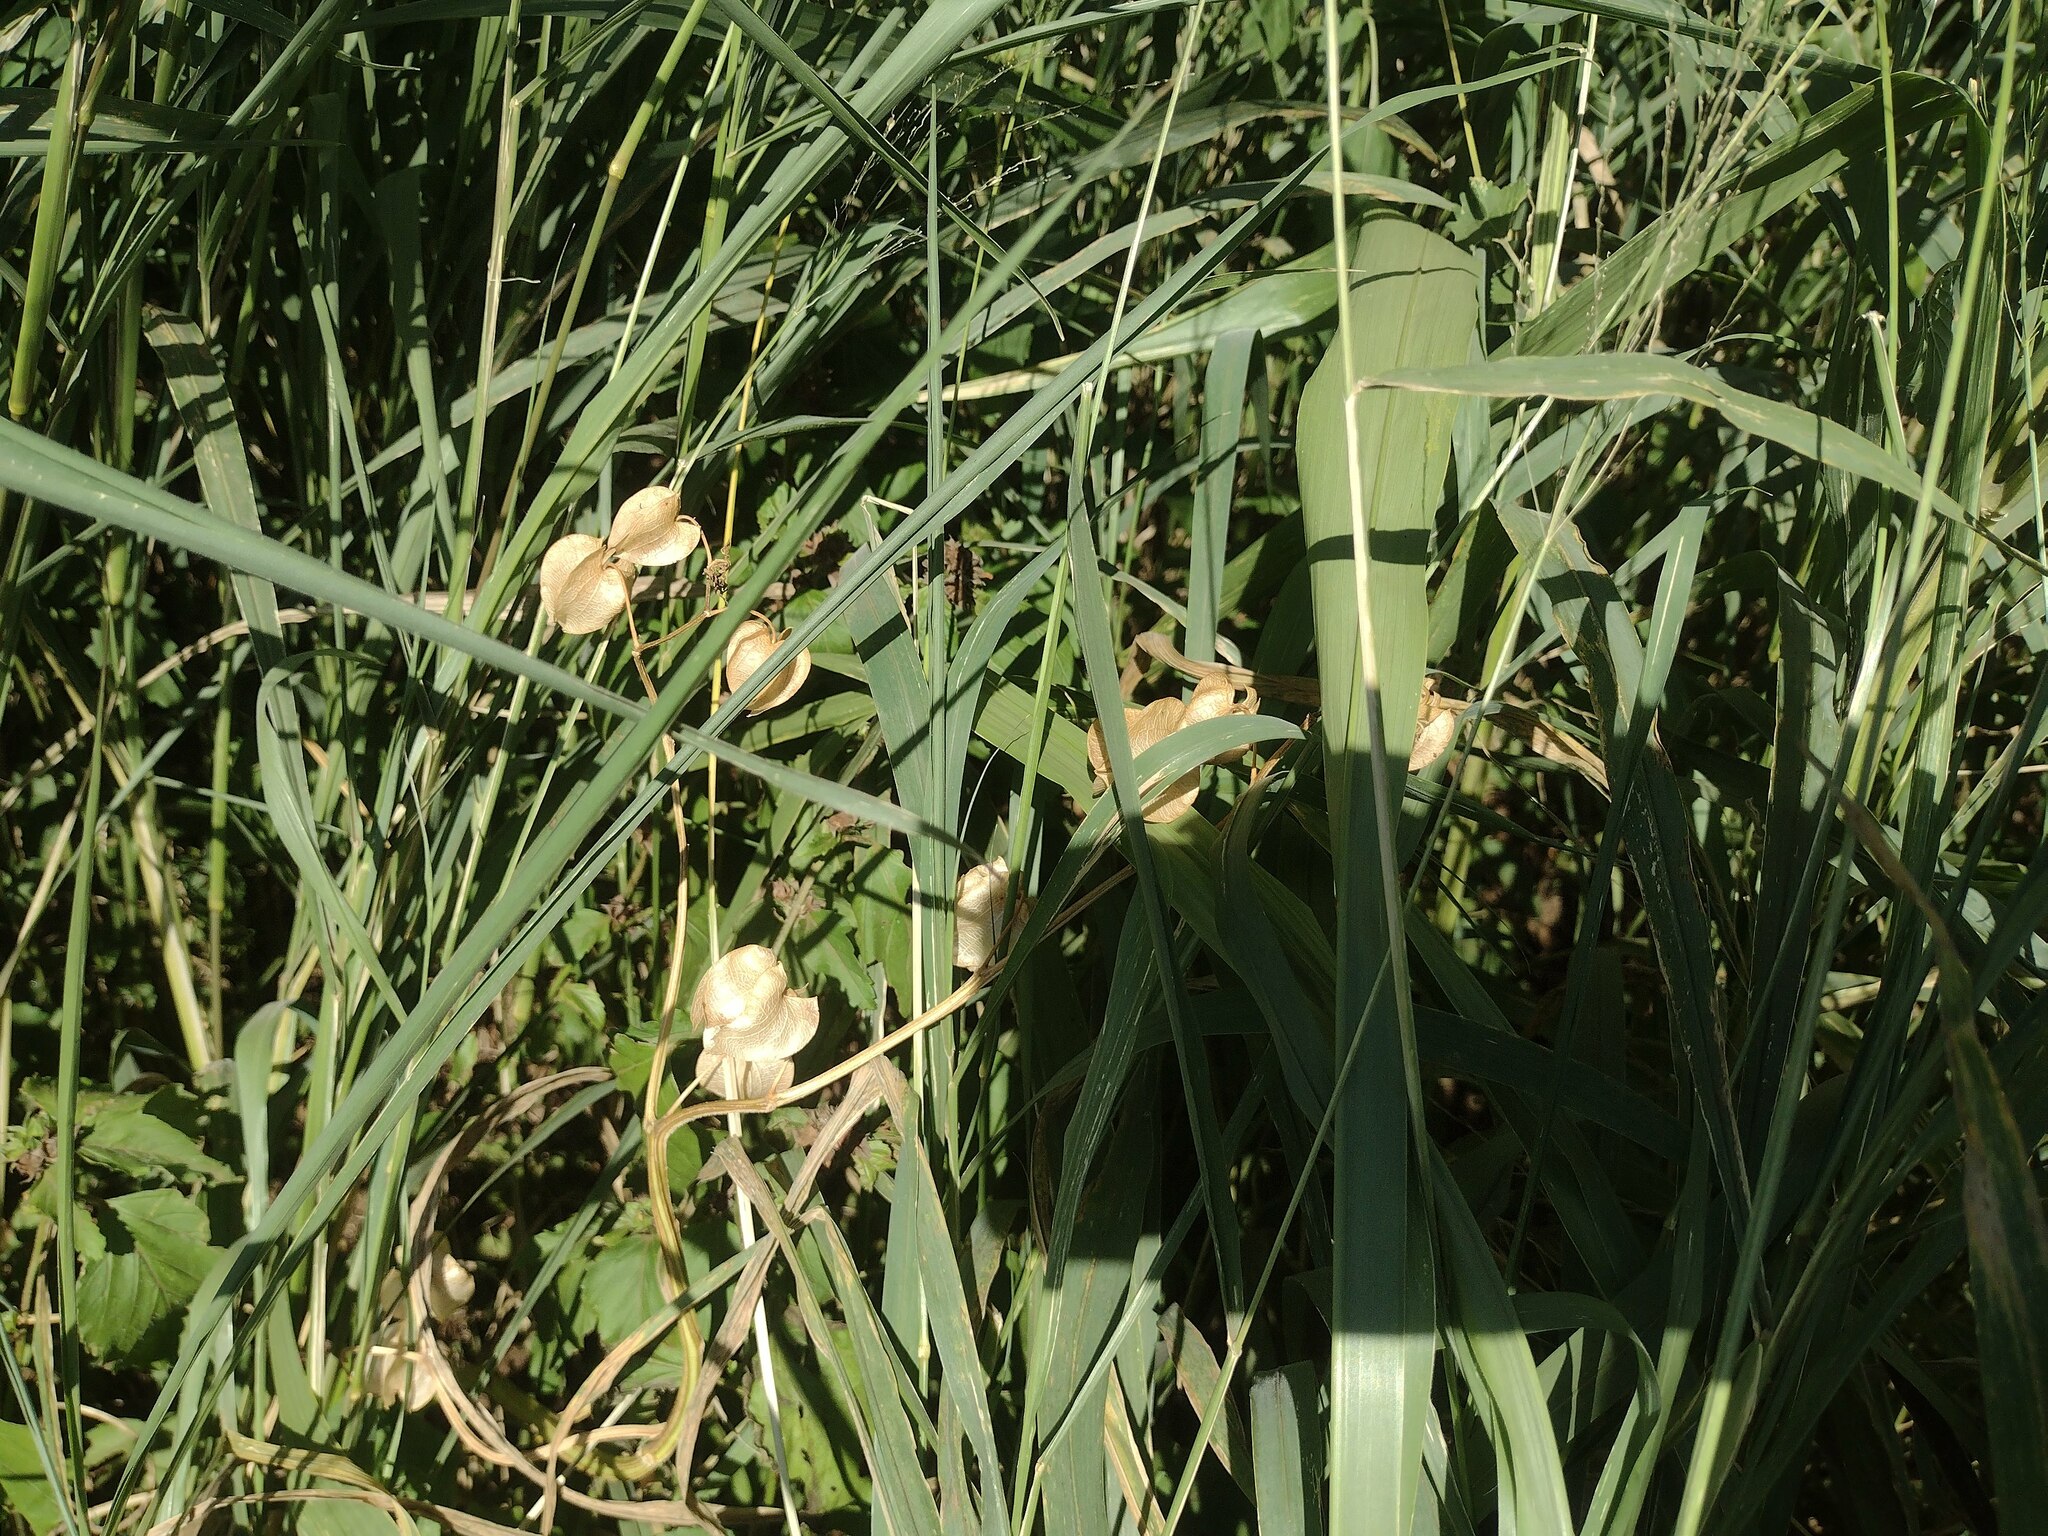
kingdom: Plantae
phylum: Tracheophyta
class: Magnoliopsida
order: Solanales
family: Solanaceae
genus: Nicandra
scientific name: Nicandra physalodes
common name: Apple-of-peru
